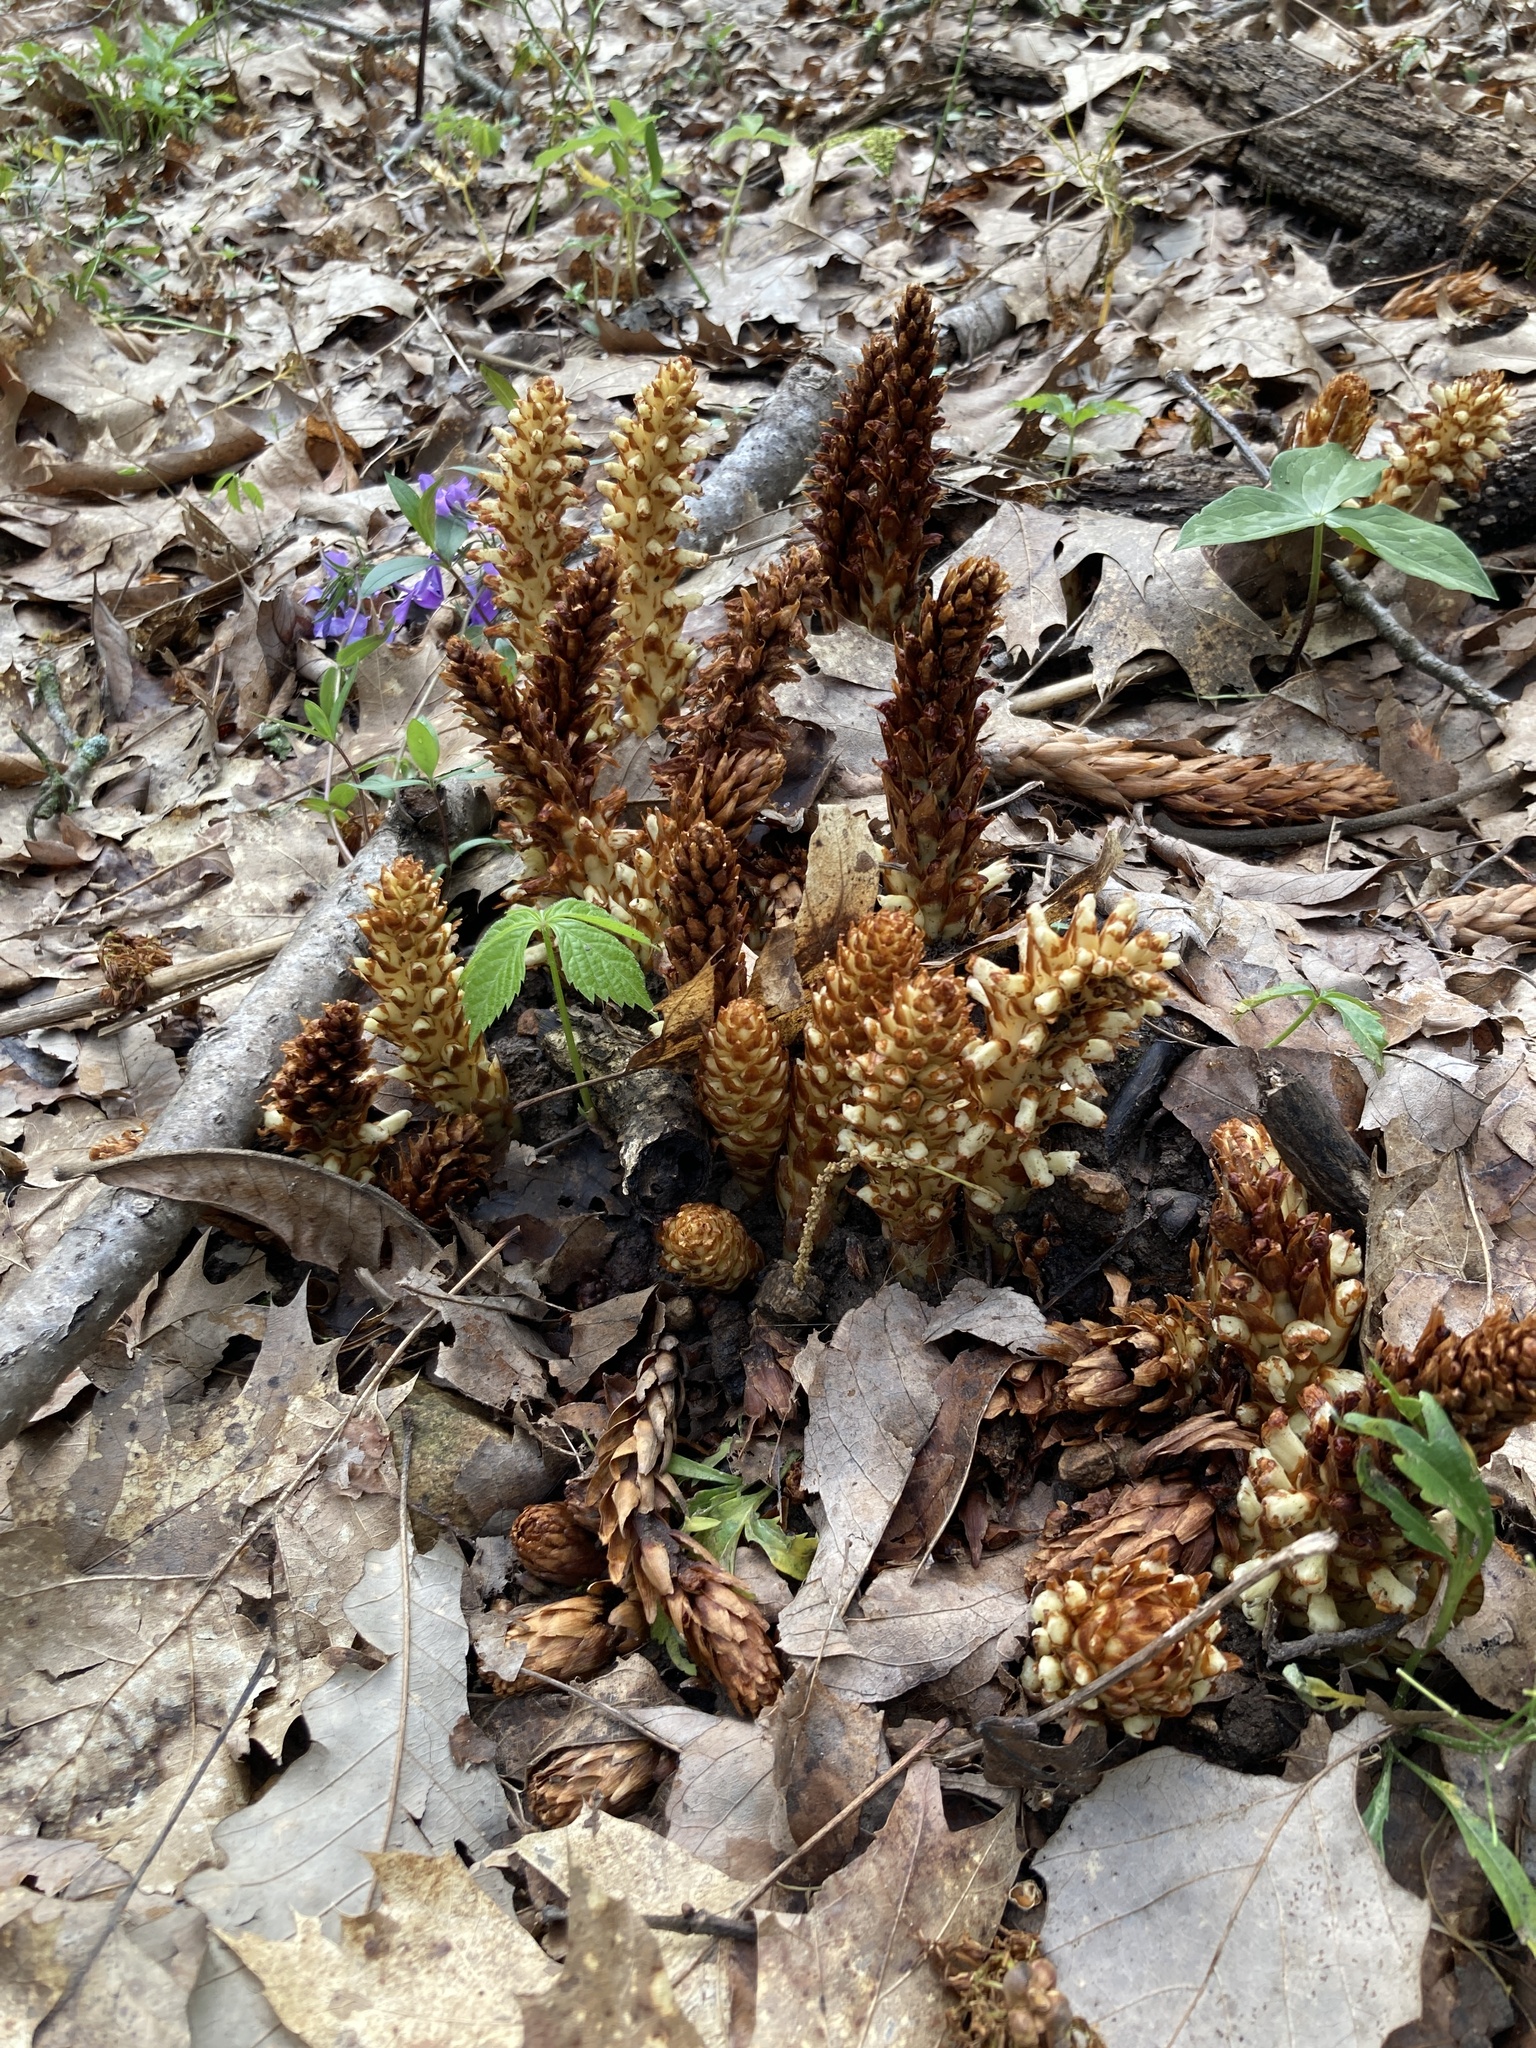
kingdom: Plantae
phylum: Tracheophyta
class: Magnoliopsida
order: Lamiales
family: Orobanchaceae
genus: Conopholis
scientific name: Conopholis americana
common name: American cancer-root
